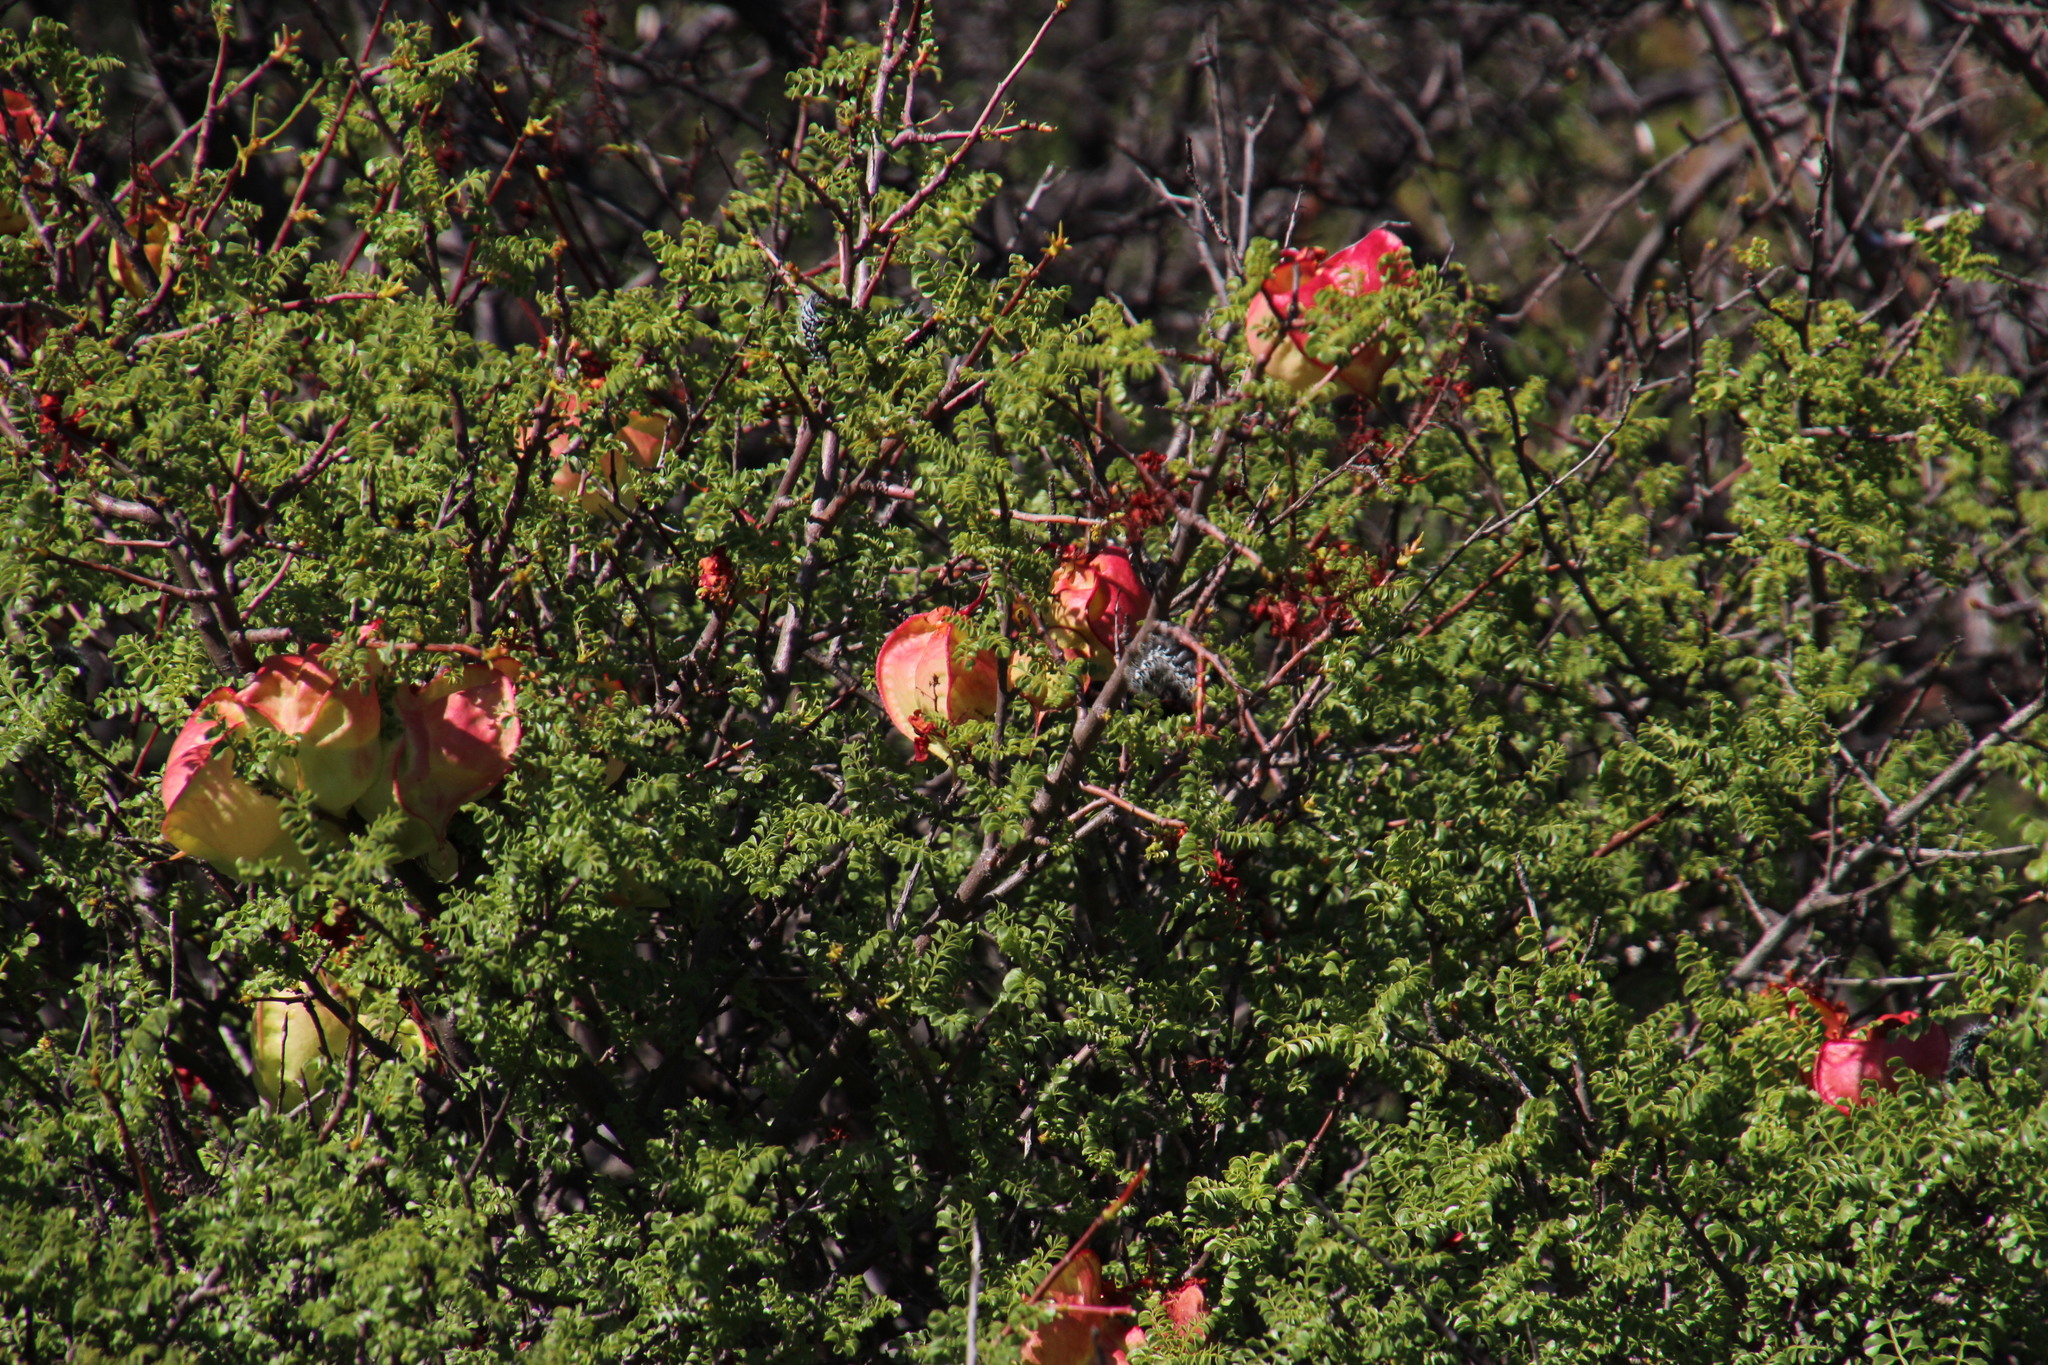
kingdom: Animalia
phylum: Arthropoda
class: Insecta
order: Lepidoptera
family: Saturniidae
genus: Gonimbrasia
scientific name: Gonimbrasia tyrrhea
